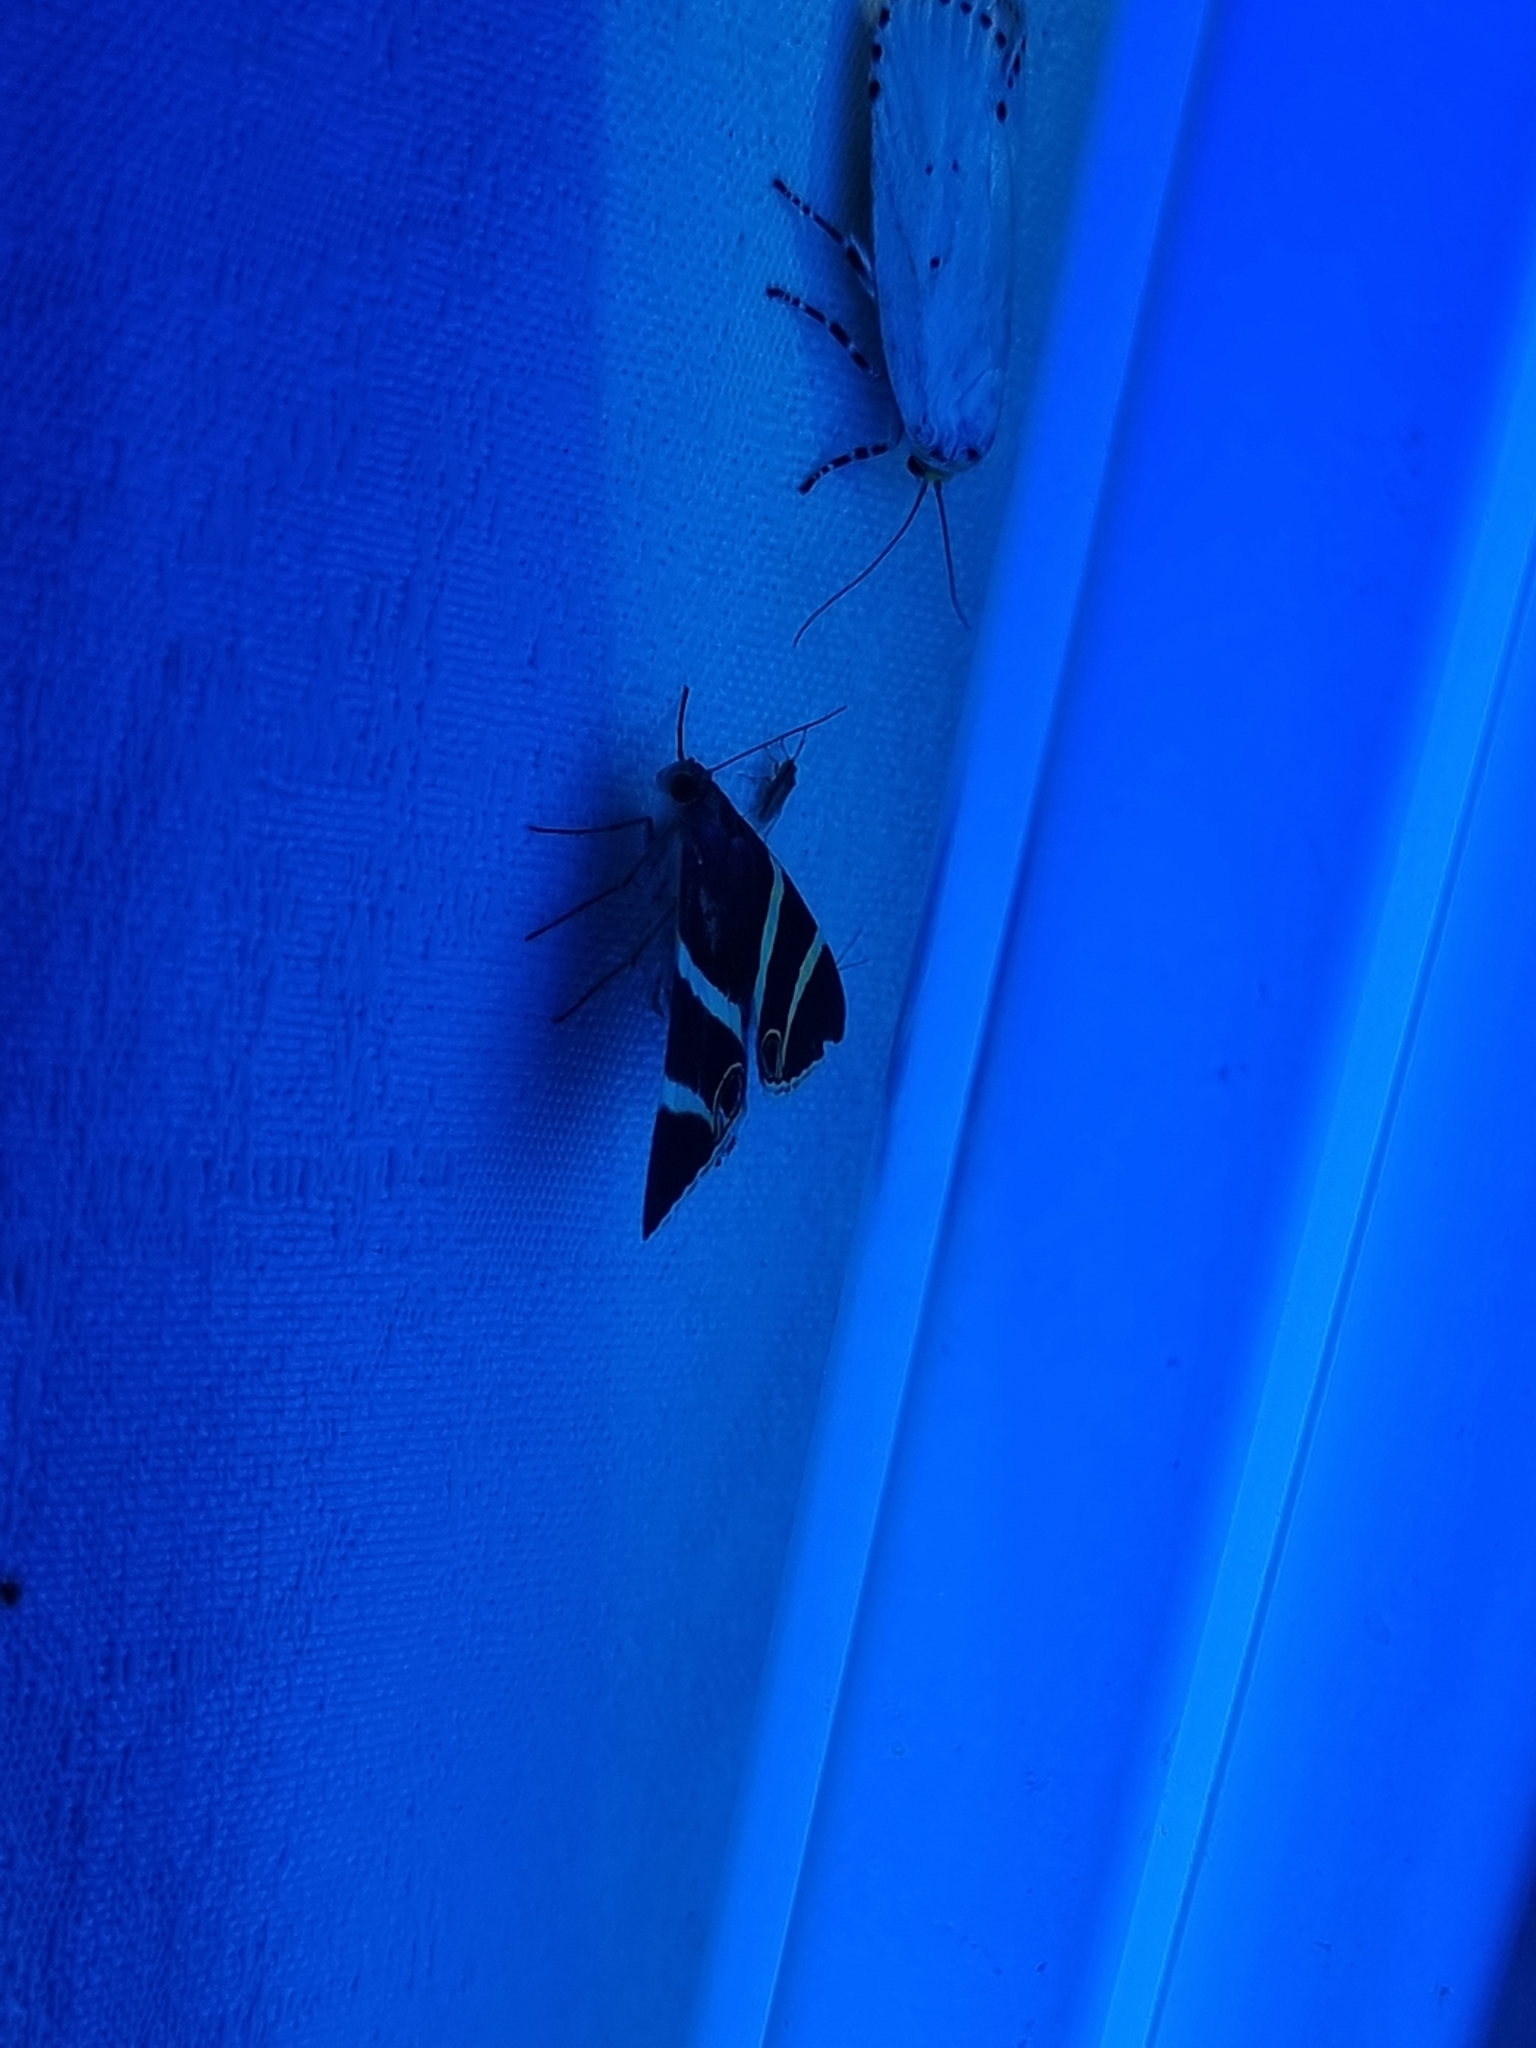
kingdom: Animalia
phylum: Arthropoda
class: Insecta
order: Lepidoptera
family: Erebidae
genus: Grammodes
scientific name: Grammodes ocellata
